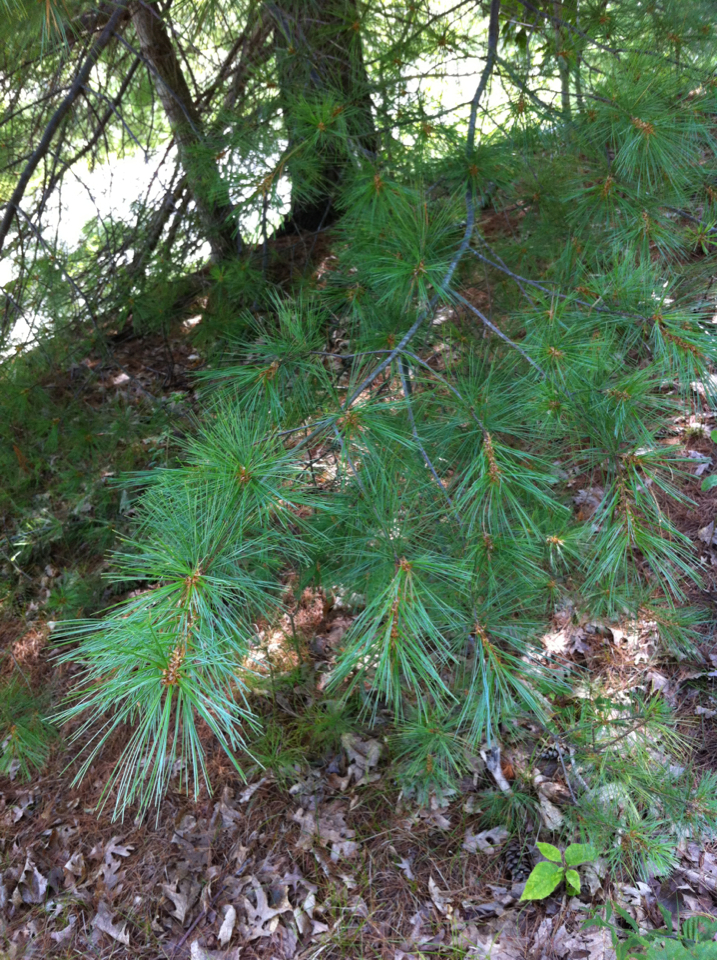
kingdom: Plantae
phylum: Tracheophyta
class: Pinopsida
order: Pinales
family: Pinaceae
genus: Pinus
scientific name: Pinus strobus
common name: Weymouth pine
